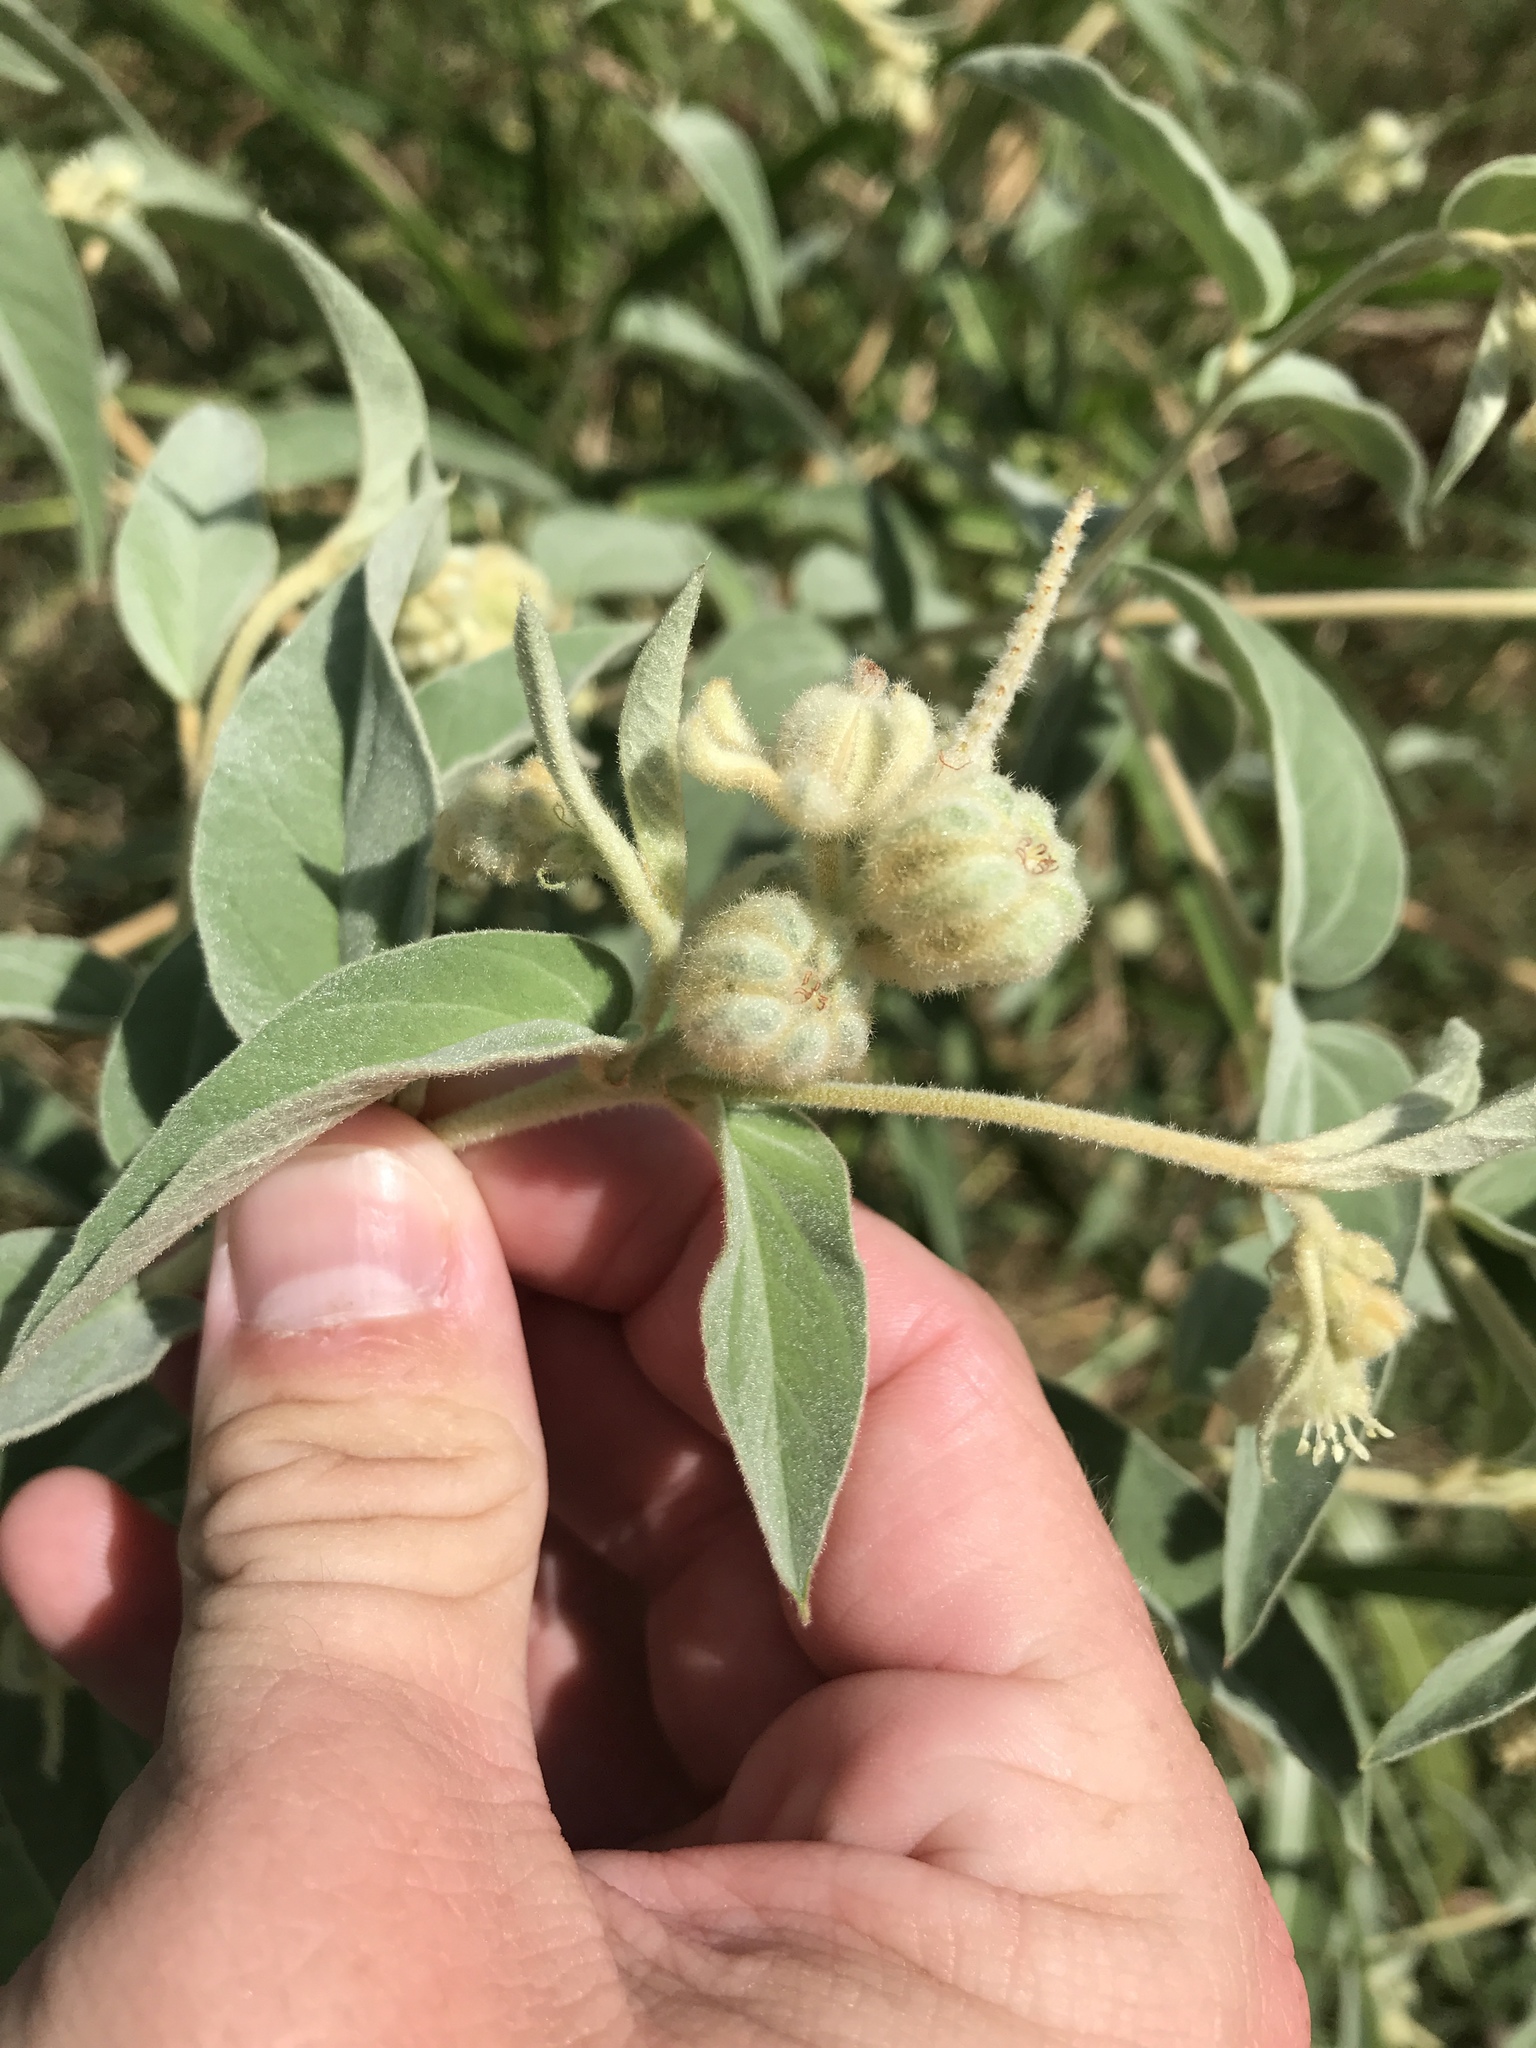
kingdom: Plantae
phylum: Tracheophyta
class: Magnoliopsida
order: Malpighiales
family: Euphorbiaceae
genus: Croton
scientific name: Croton lindheimeri
